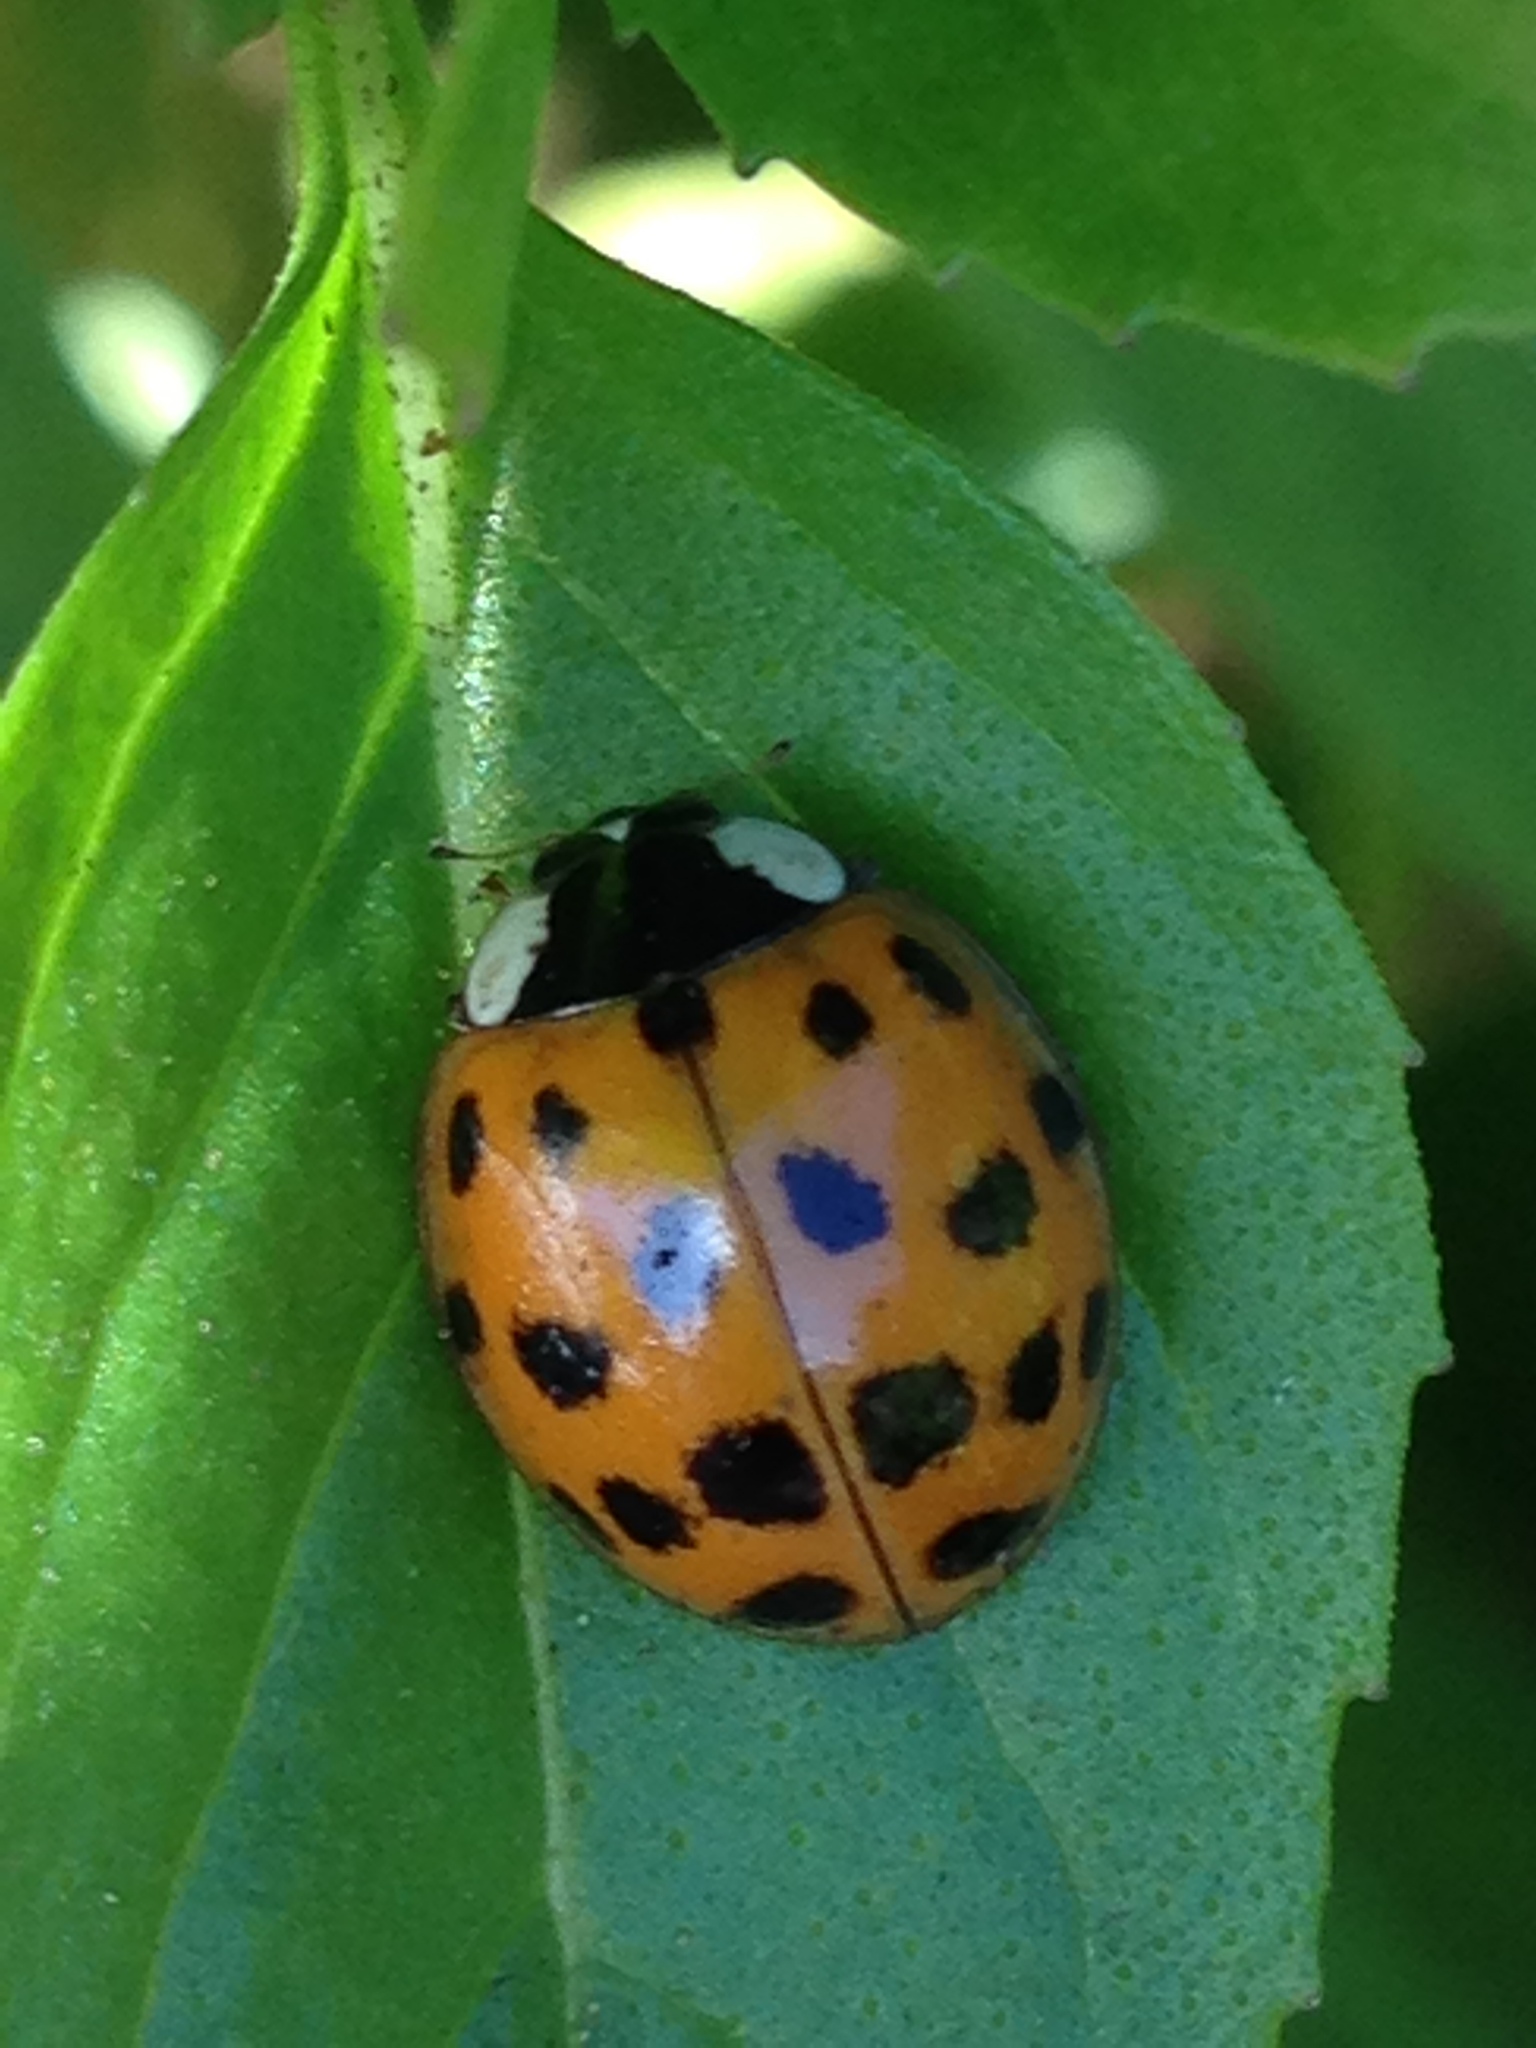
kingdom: Animalia
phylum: Arthropoda
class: Insecta
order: Coleoptera
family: Coccinellidae
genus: Harmonia
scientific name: Harmonia axyridis
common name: Harlequin ladybird
